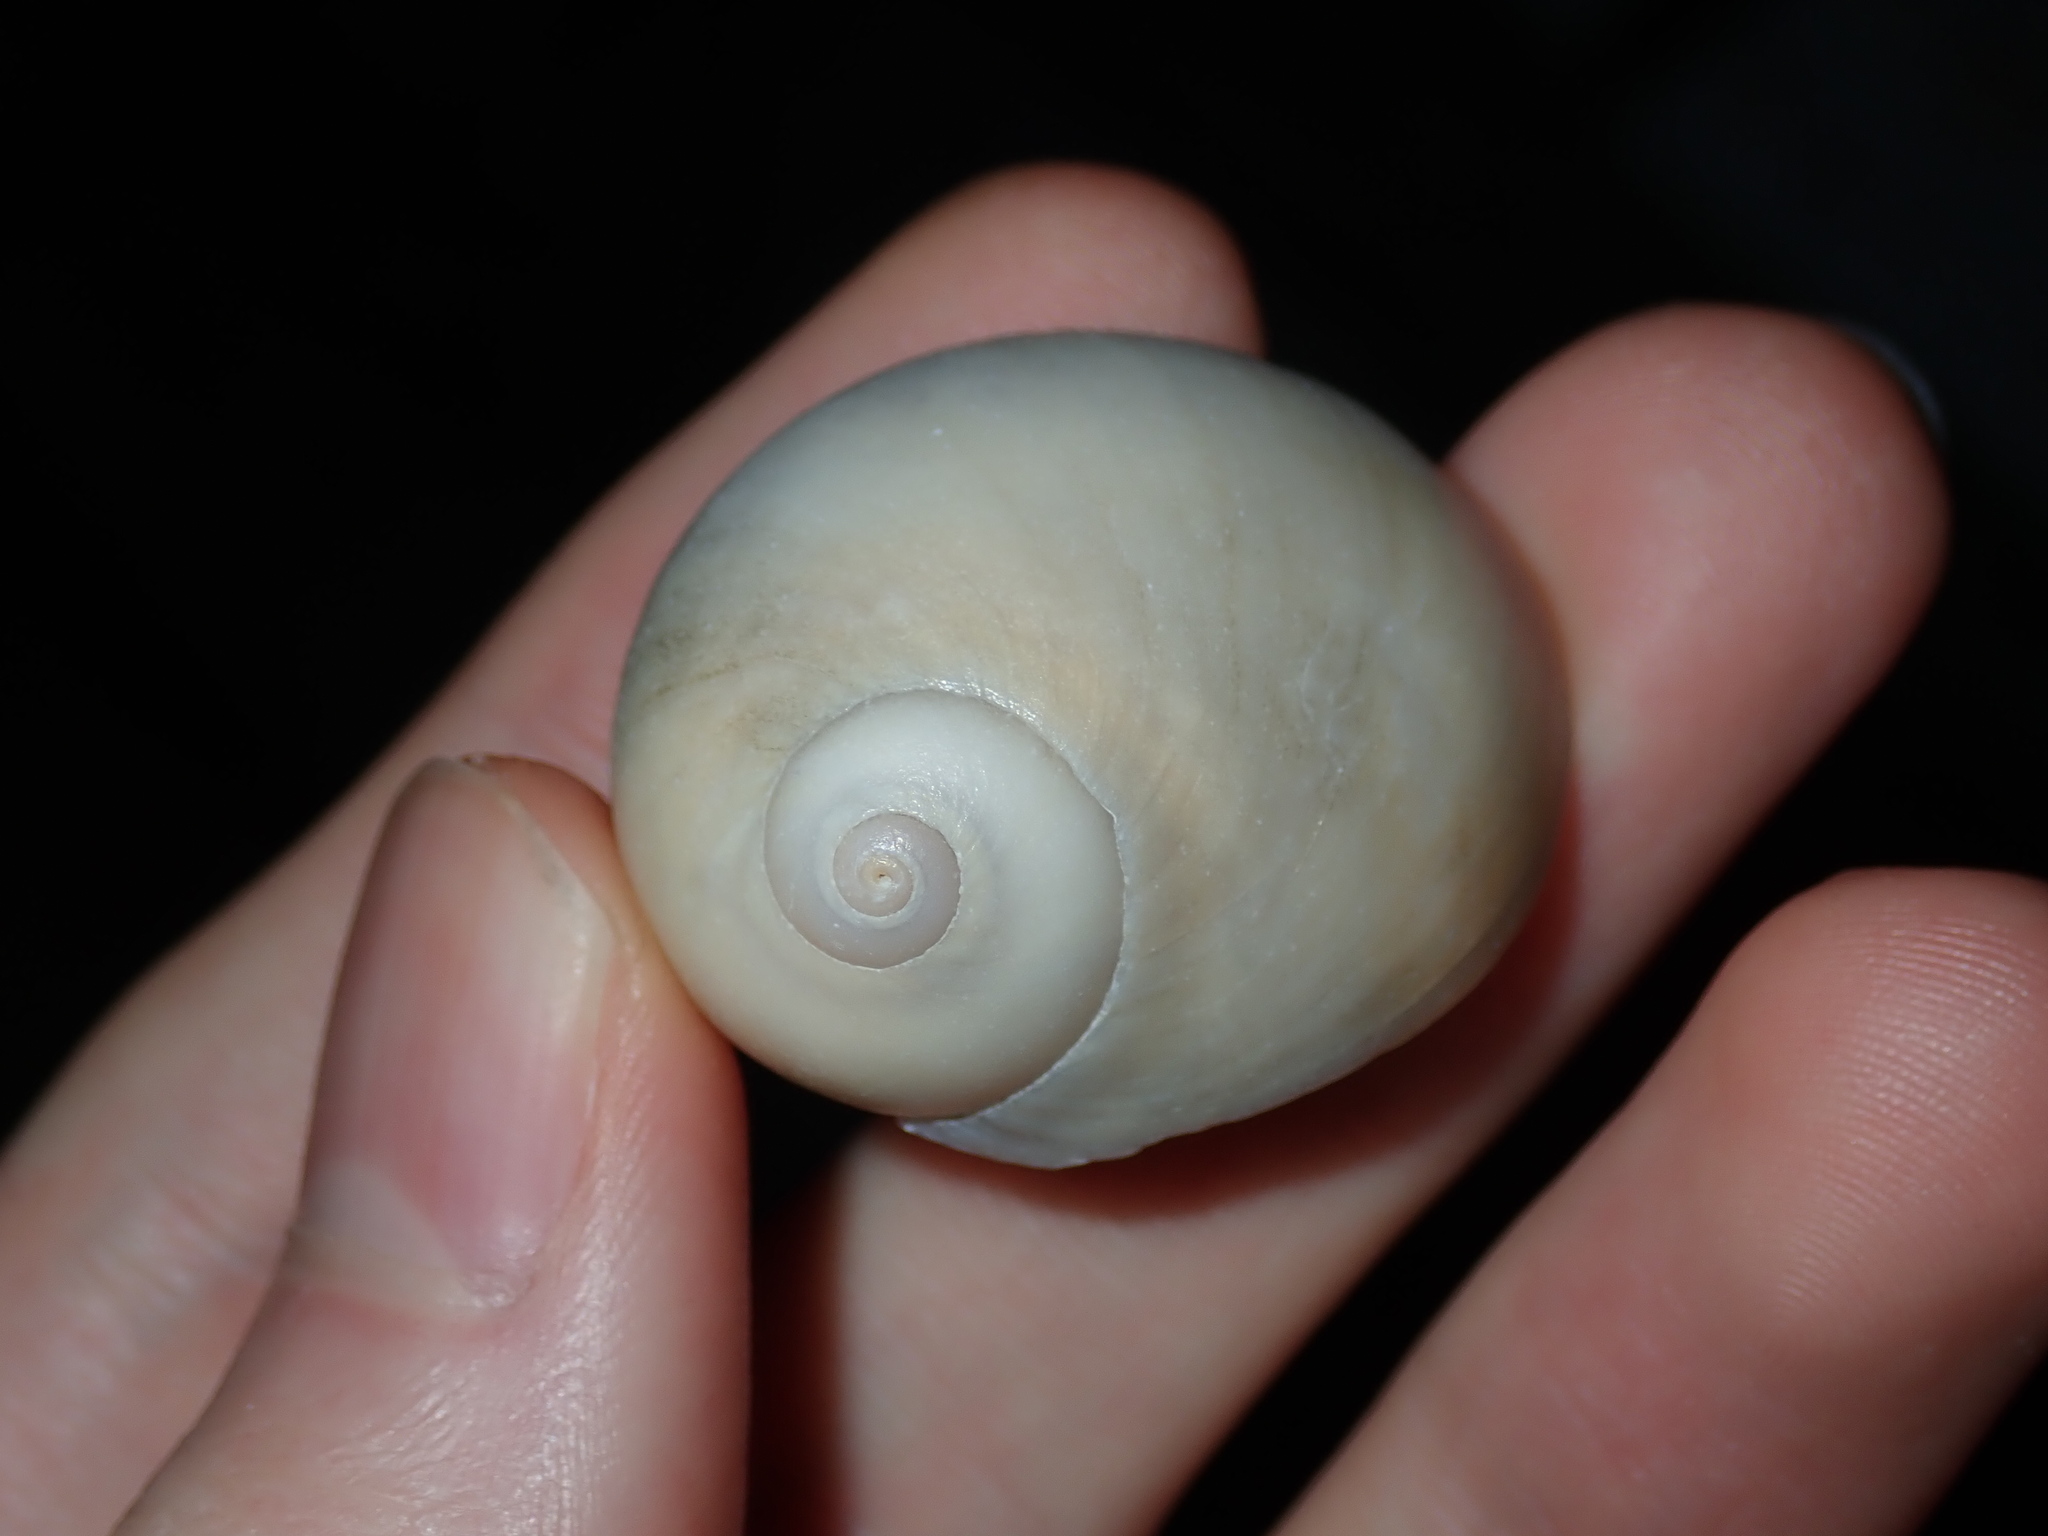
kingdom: Animalia
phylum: Mollusca
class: Gastropoda
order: Littorinimorpha
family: Naticidae
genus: Neverita
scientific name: Neverita didyma
